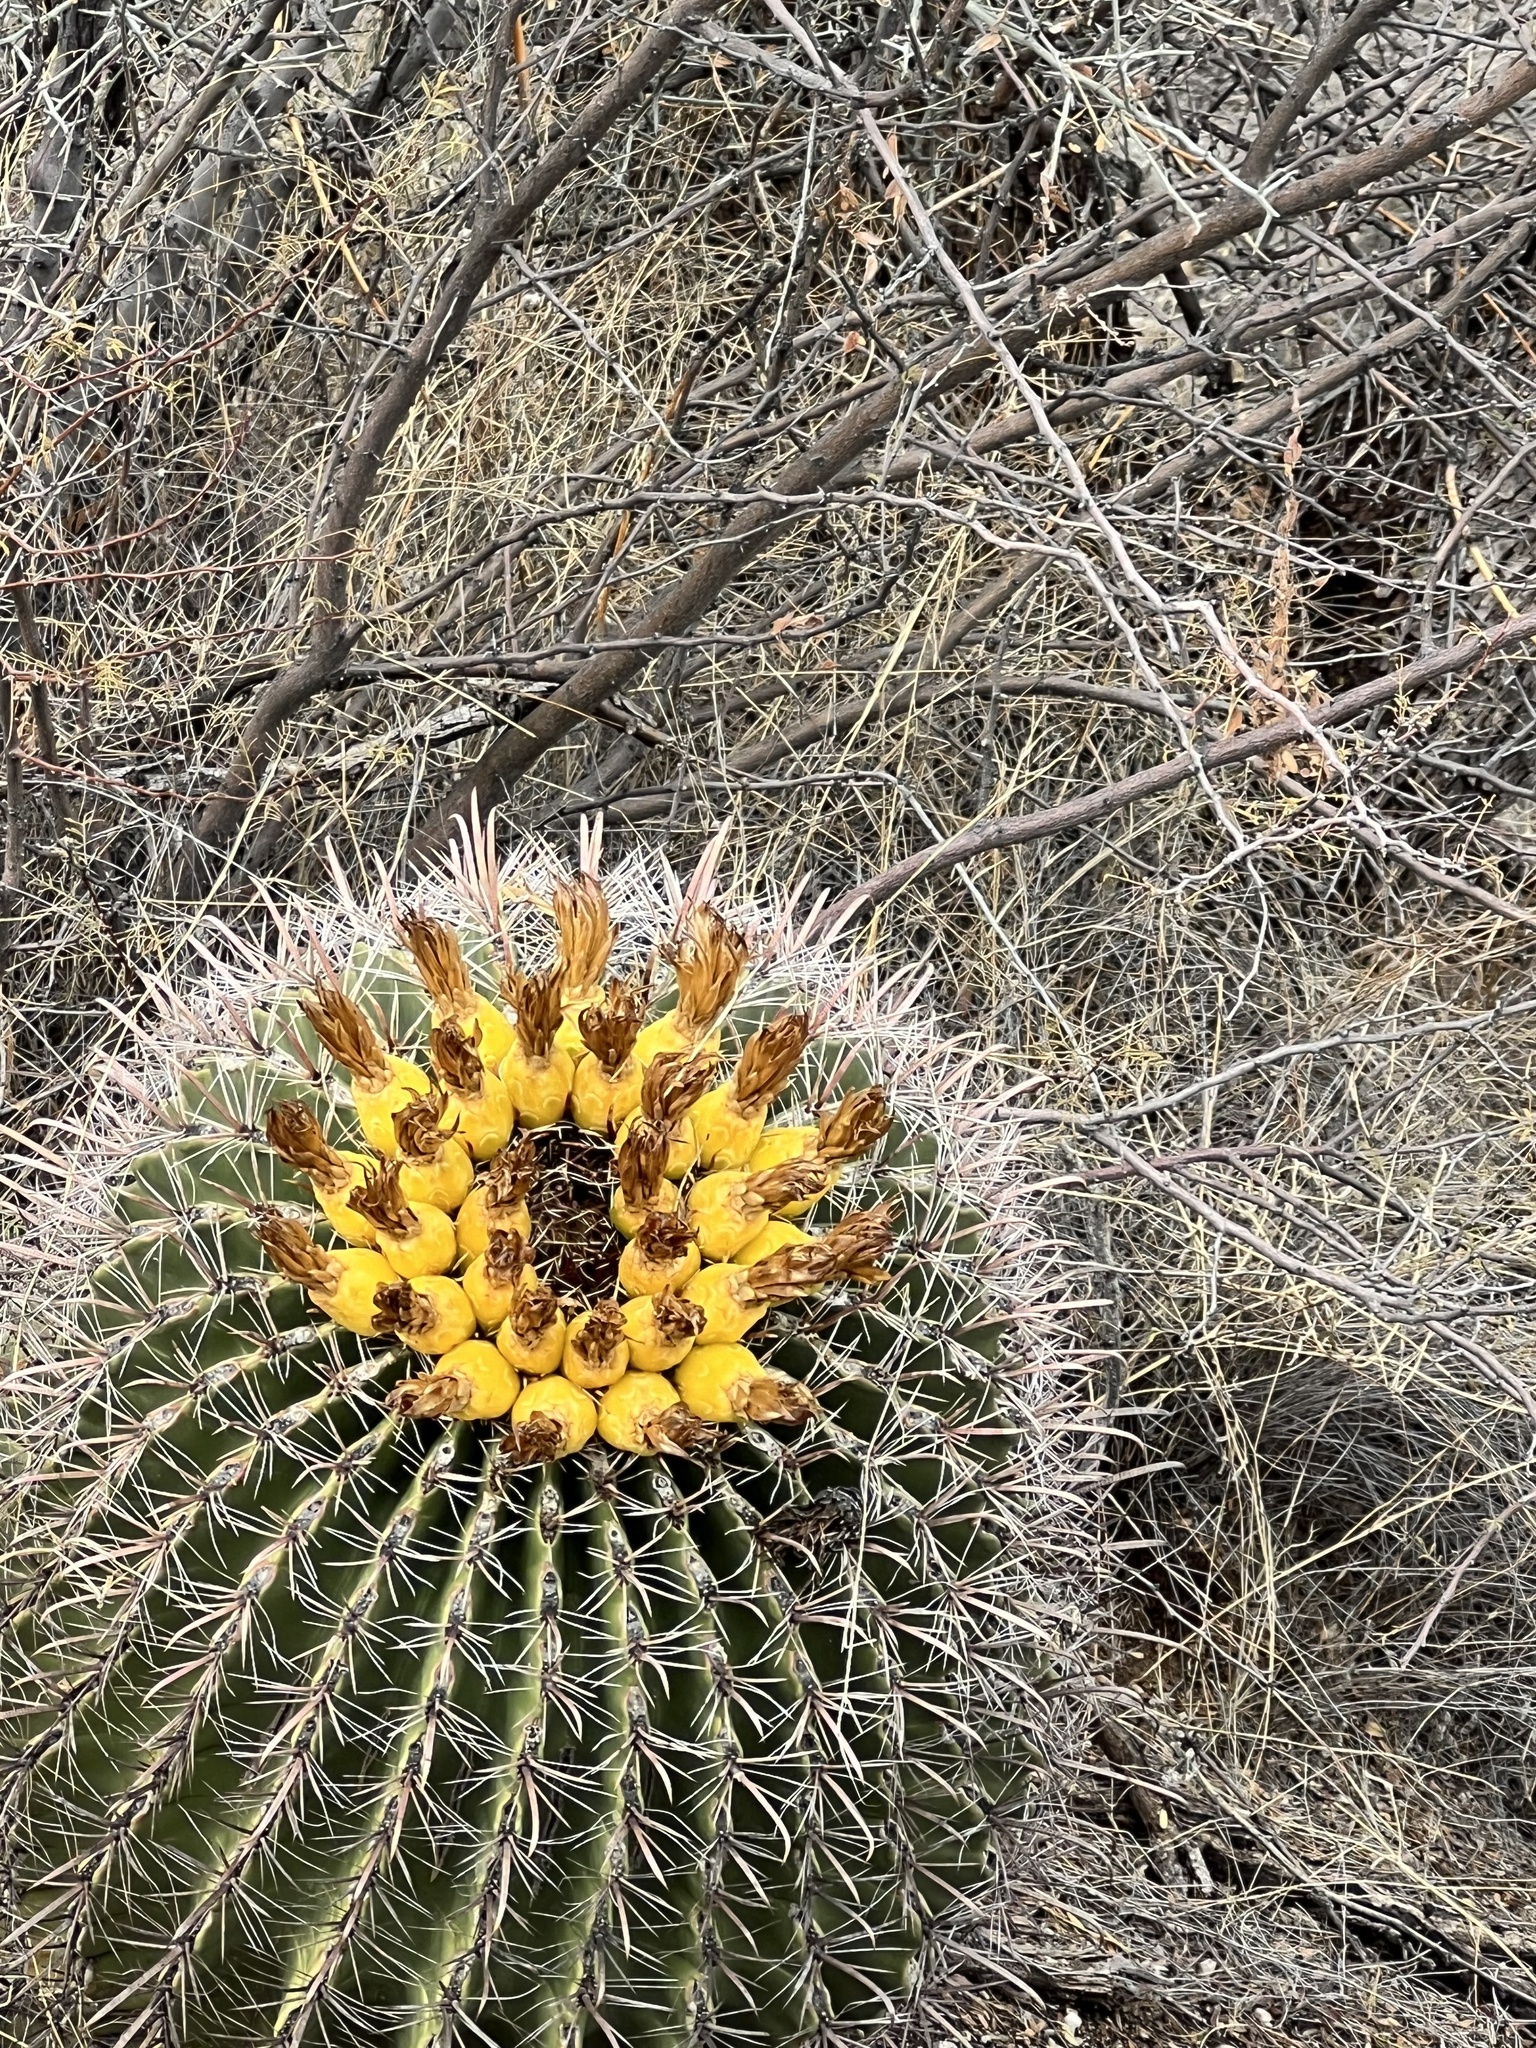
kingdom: Plantae
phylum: Tracheophyta
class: Magnoliopsida
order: Caryophyllales
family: Cactaceae
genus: Ferocactus
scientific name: Ferocactus wislizeni
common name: Candy barrel cactus
